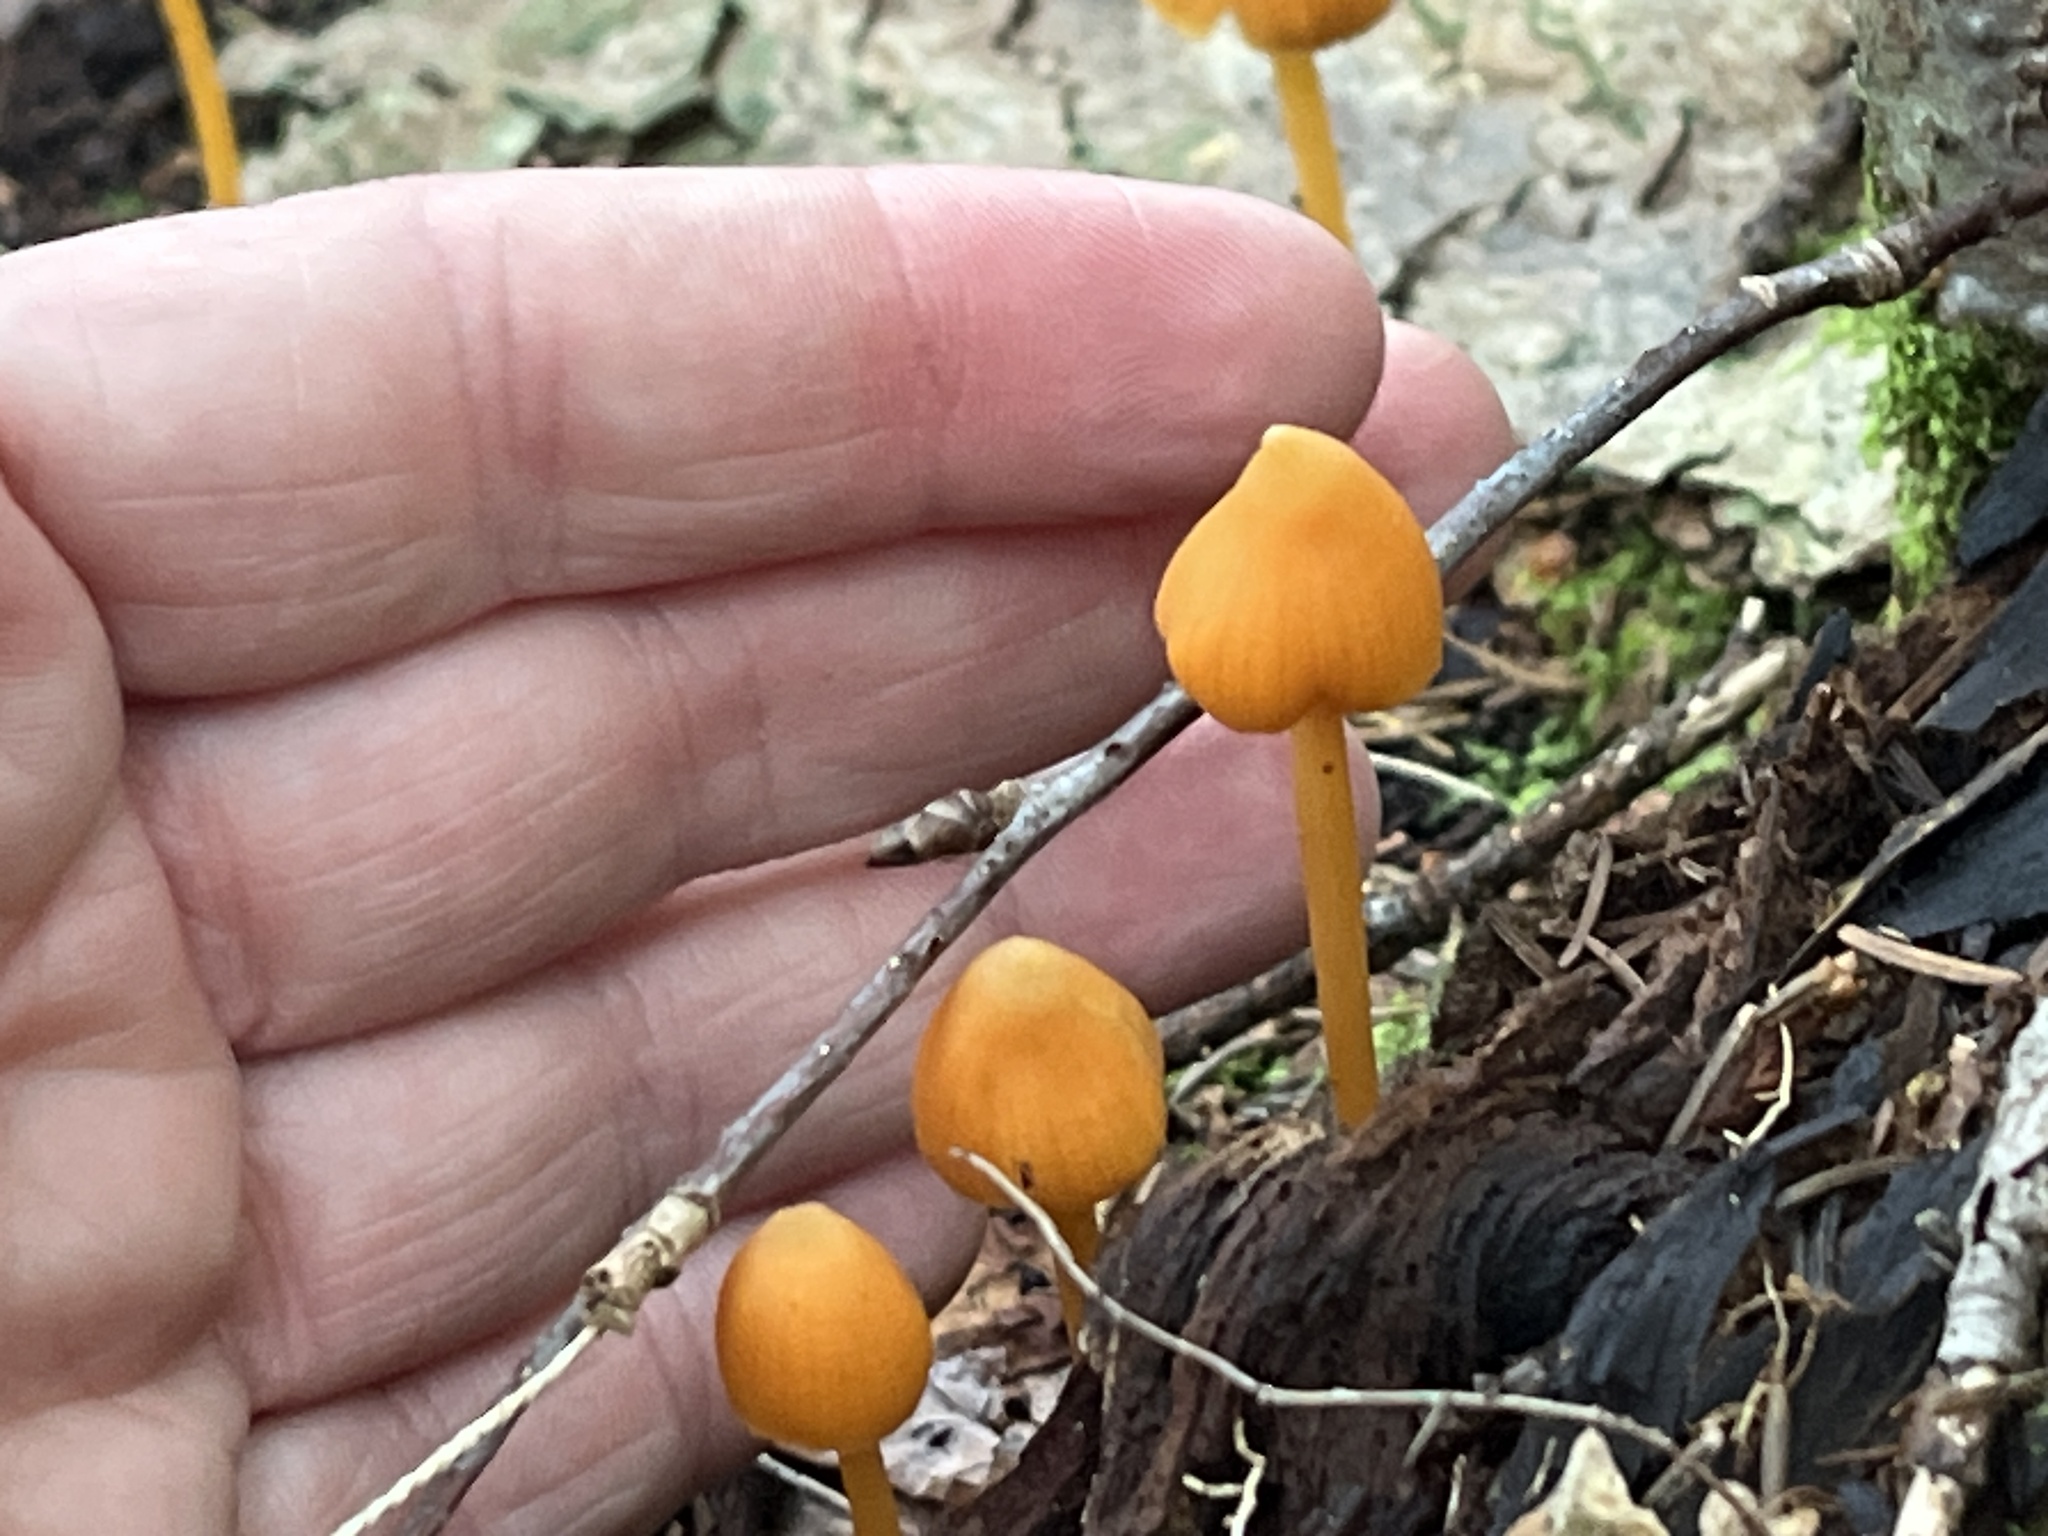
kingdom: Fungi
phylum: Basidiomycota
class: Agaricomycetes
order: Agaricales
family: Entolomataceae
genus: Entoloma
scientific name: Entoloma quadratum
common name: Salmon pinkgill
